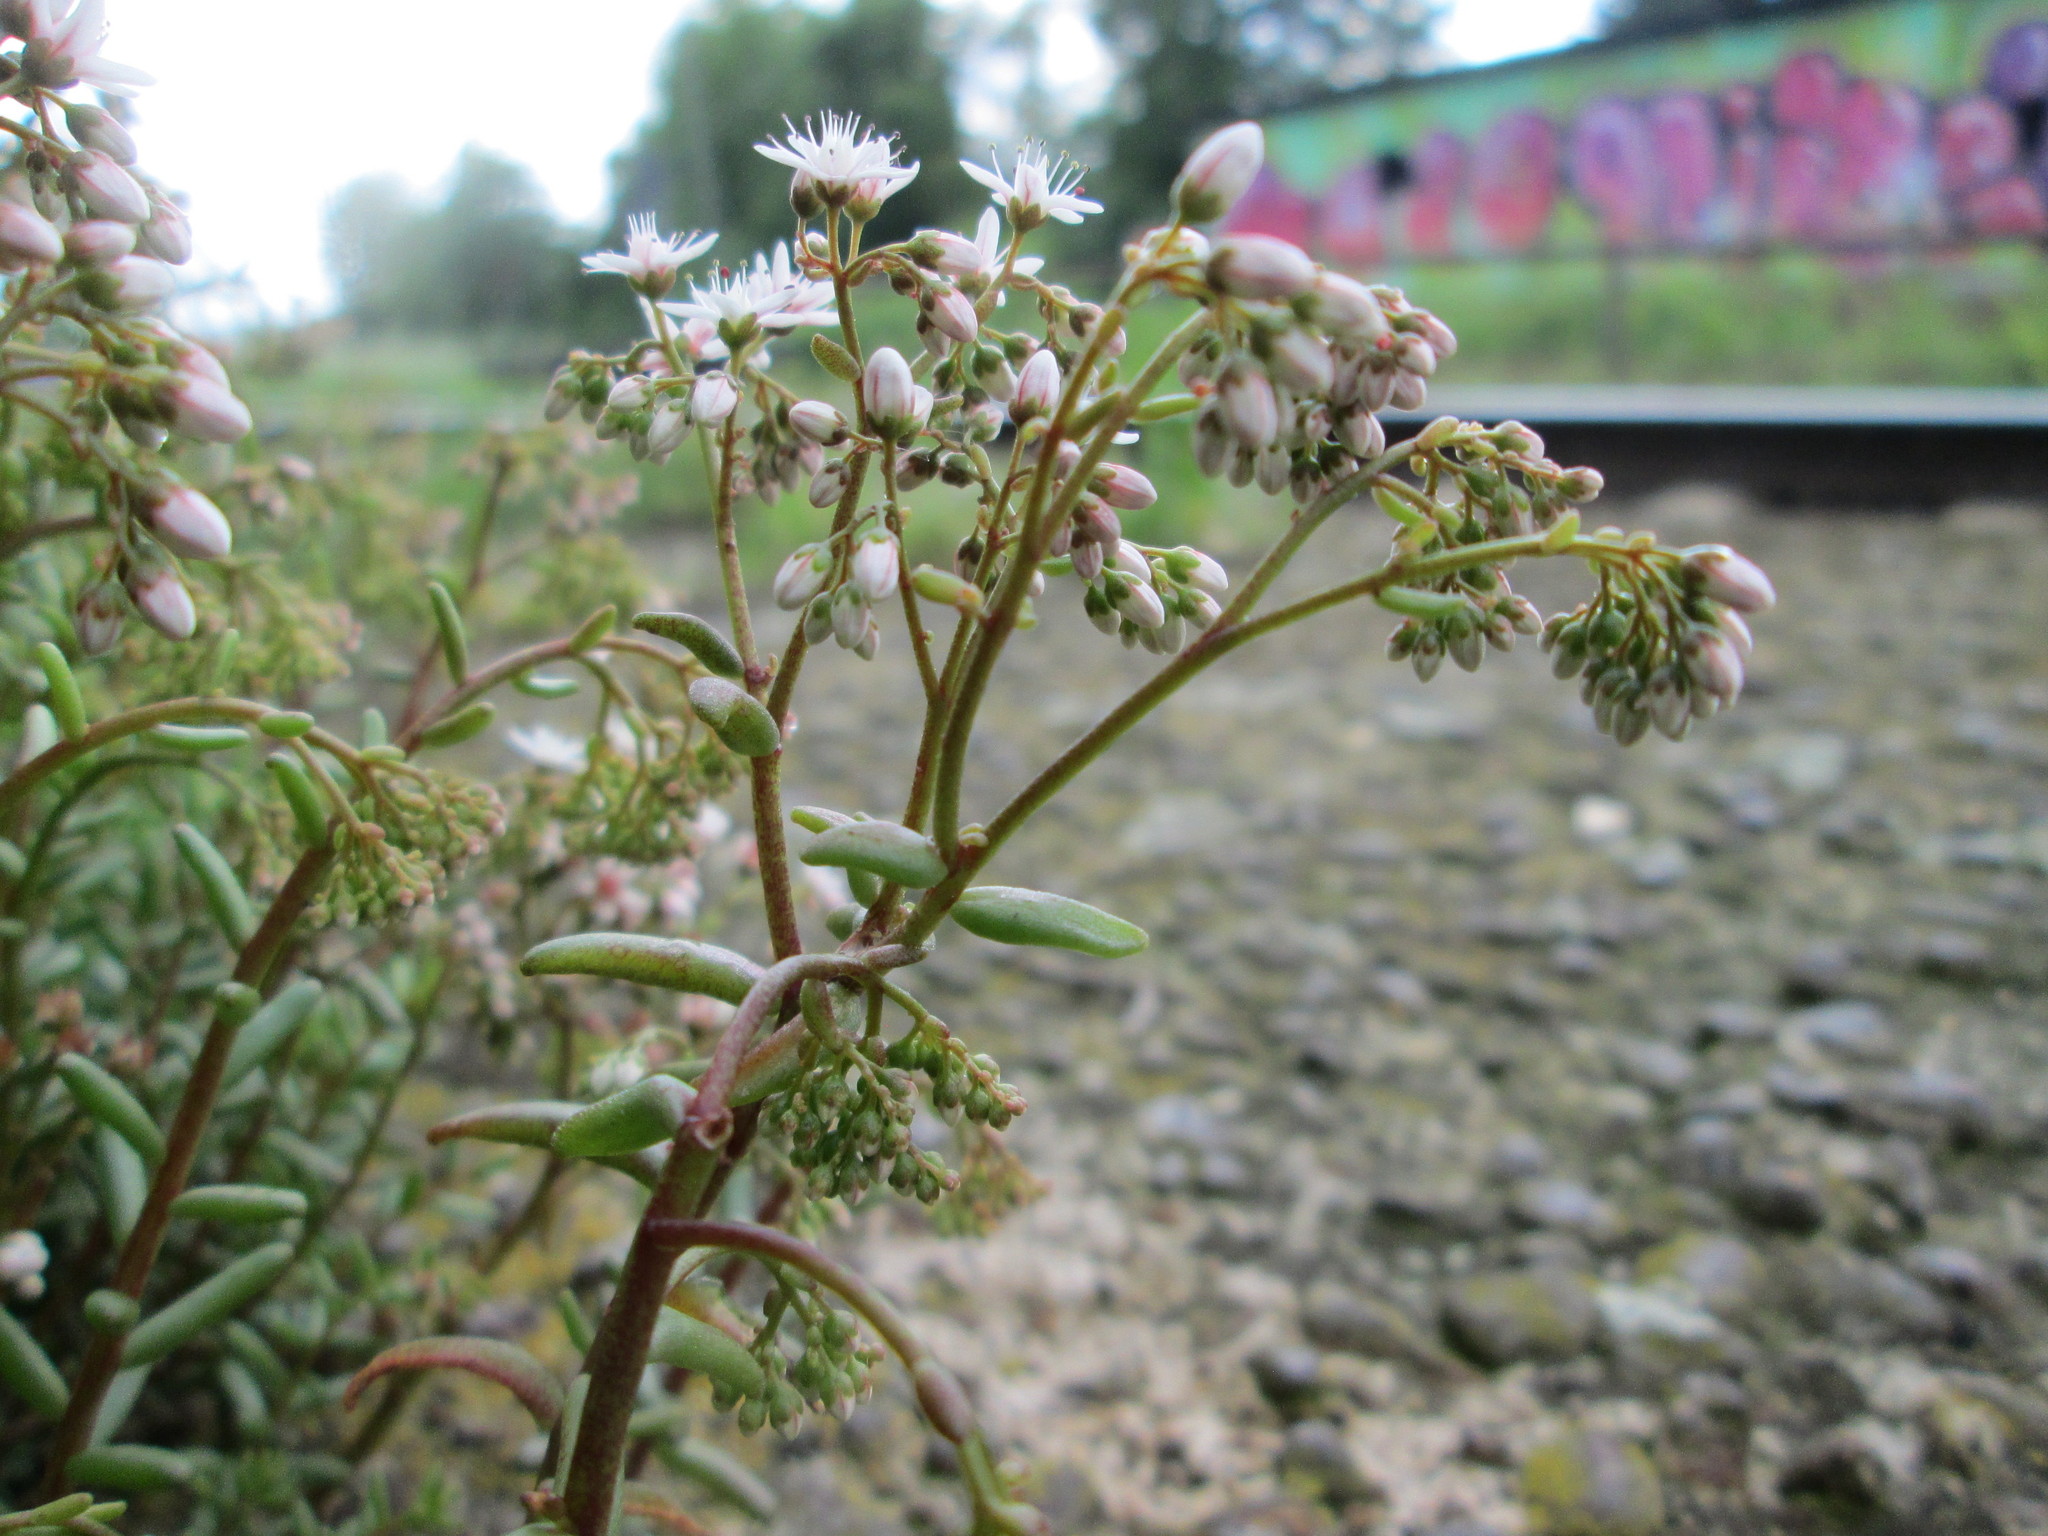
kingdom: Plantae
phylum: Tracheophyta
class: Magnoliopsida
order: Saxifragales
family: Crassulaceae
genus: Sedum
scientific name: Sedum album
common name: White stonecrop
